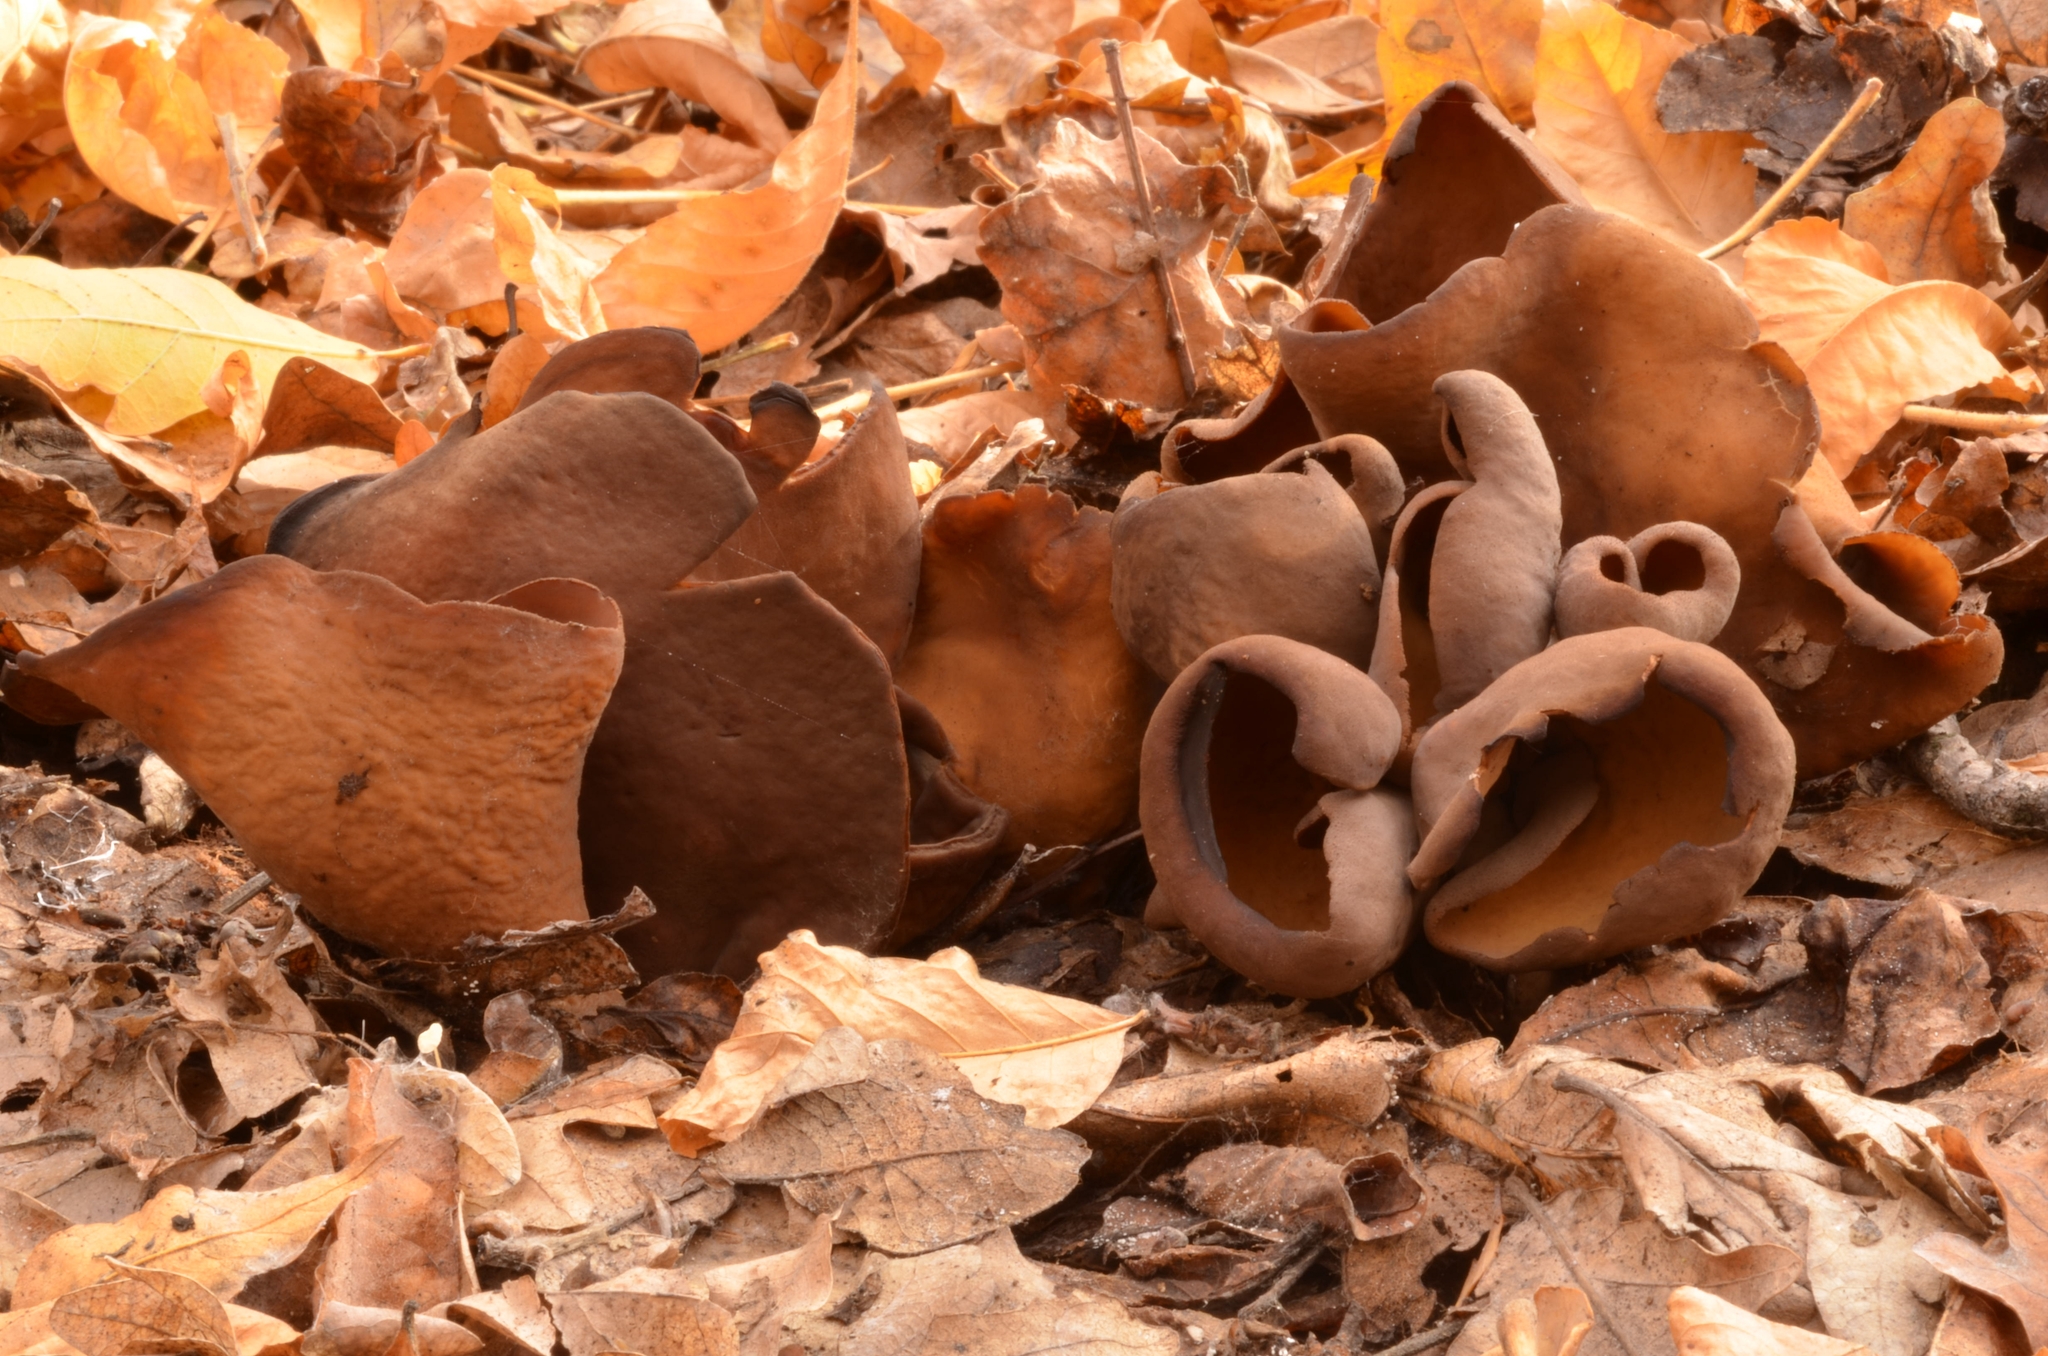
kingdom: Fungi
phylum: Ascomycota
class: Pezizomycetes
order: Pezizales
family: Otideaceae
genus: Otidea
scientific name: Otidea bufonia
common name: Toad's ear
